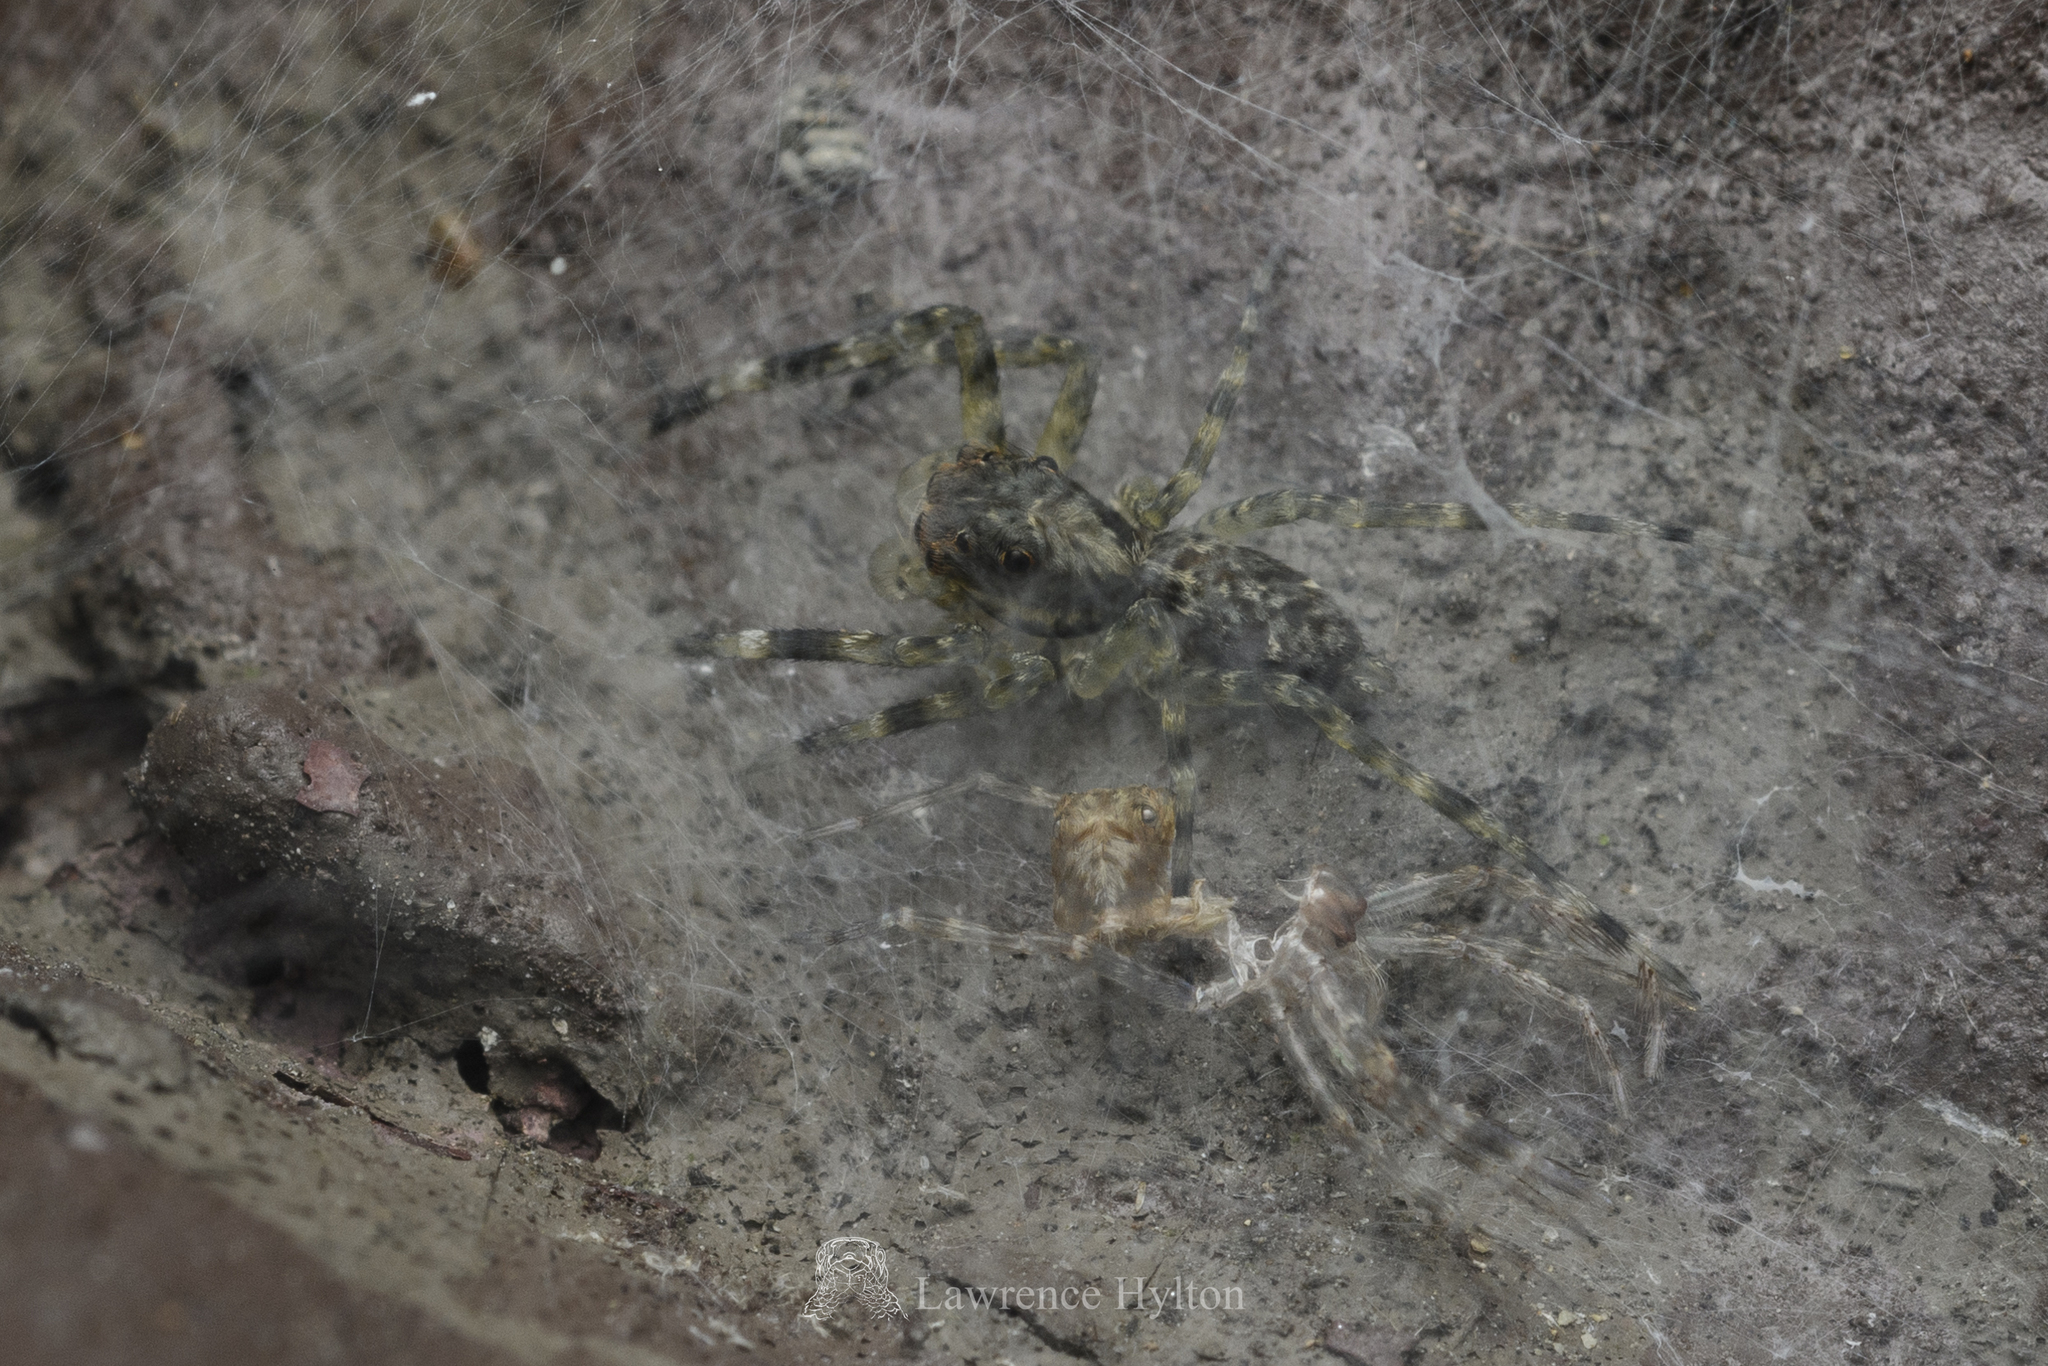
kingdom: Animalia
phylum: Arthropoda
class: Arachnida
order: Araneae
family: Salticidae
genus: Spartaeus
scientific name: Spartaeus zhangi
